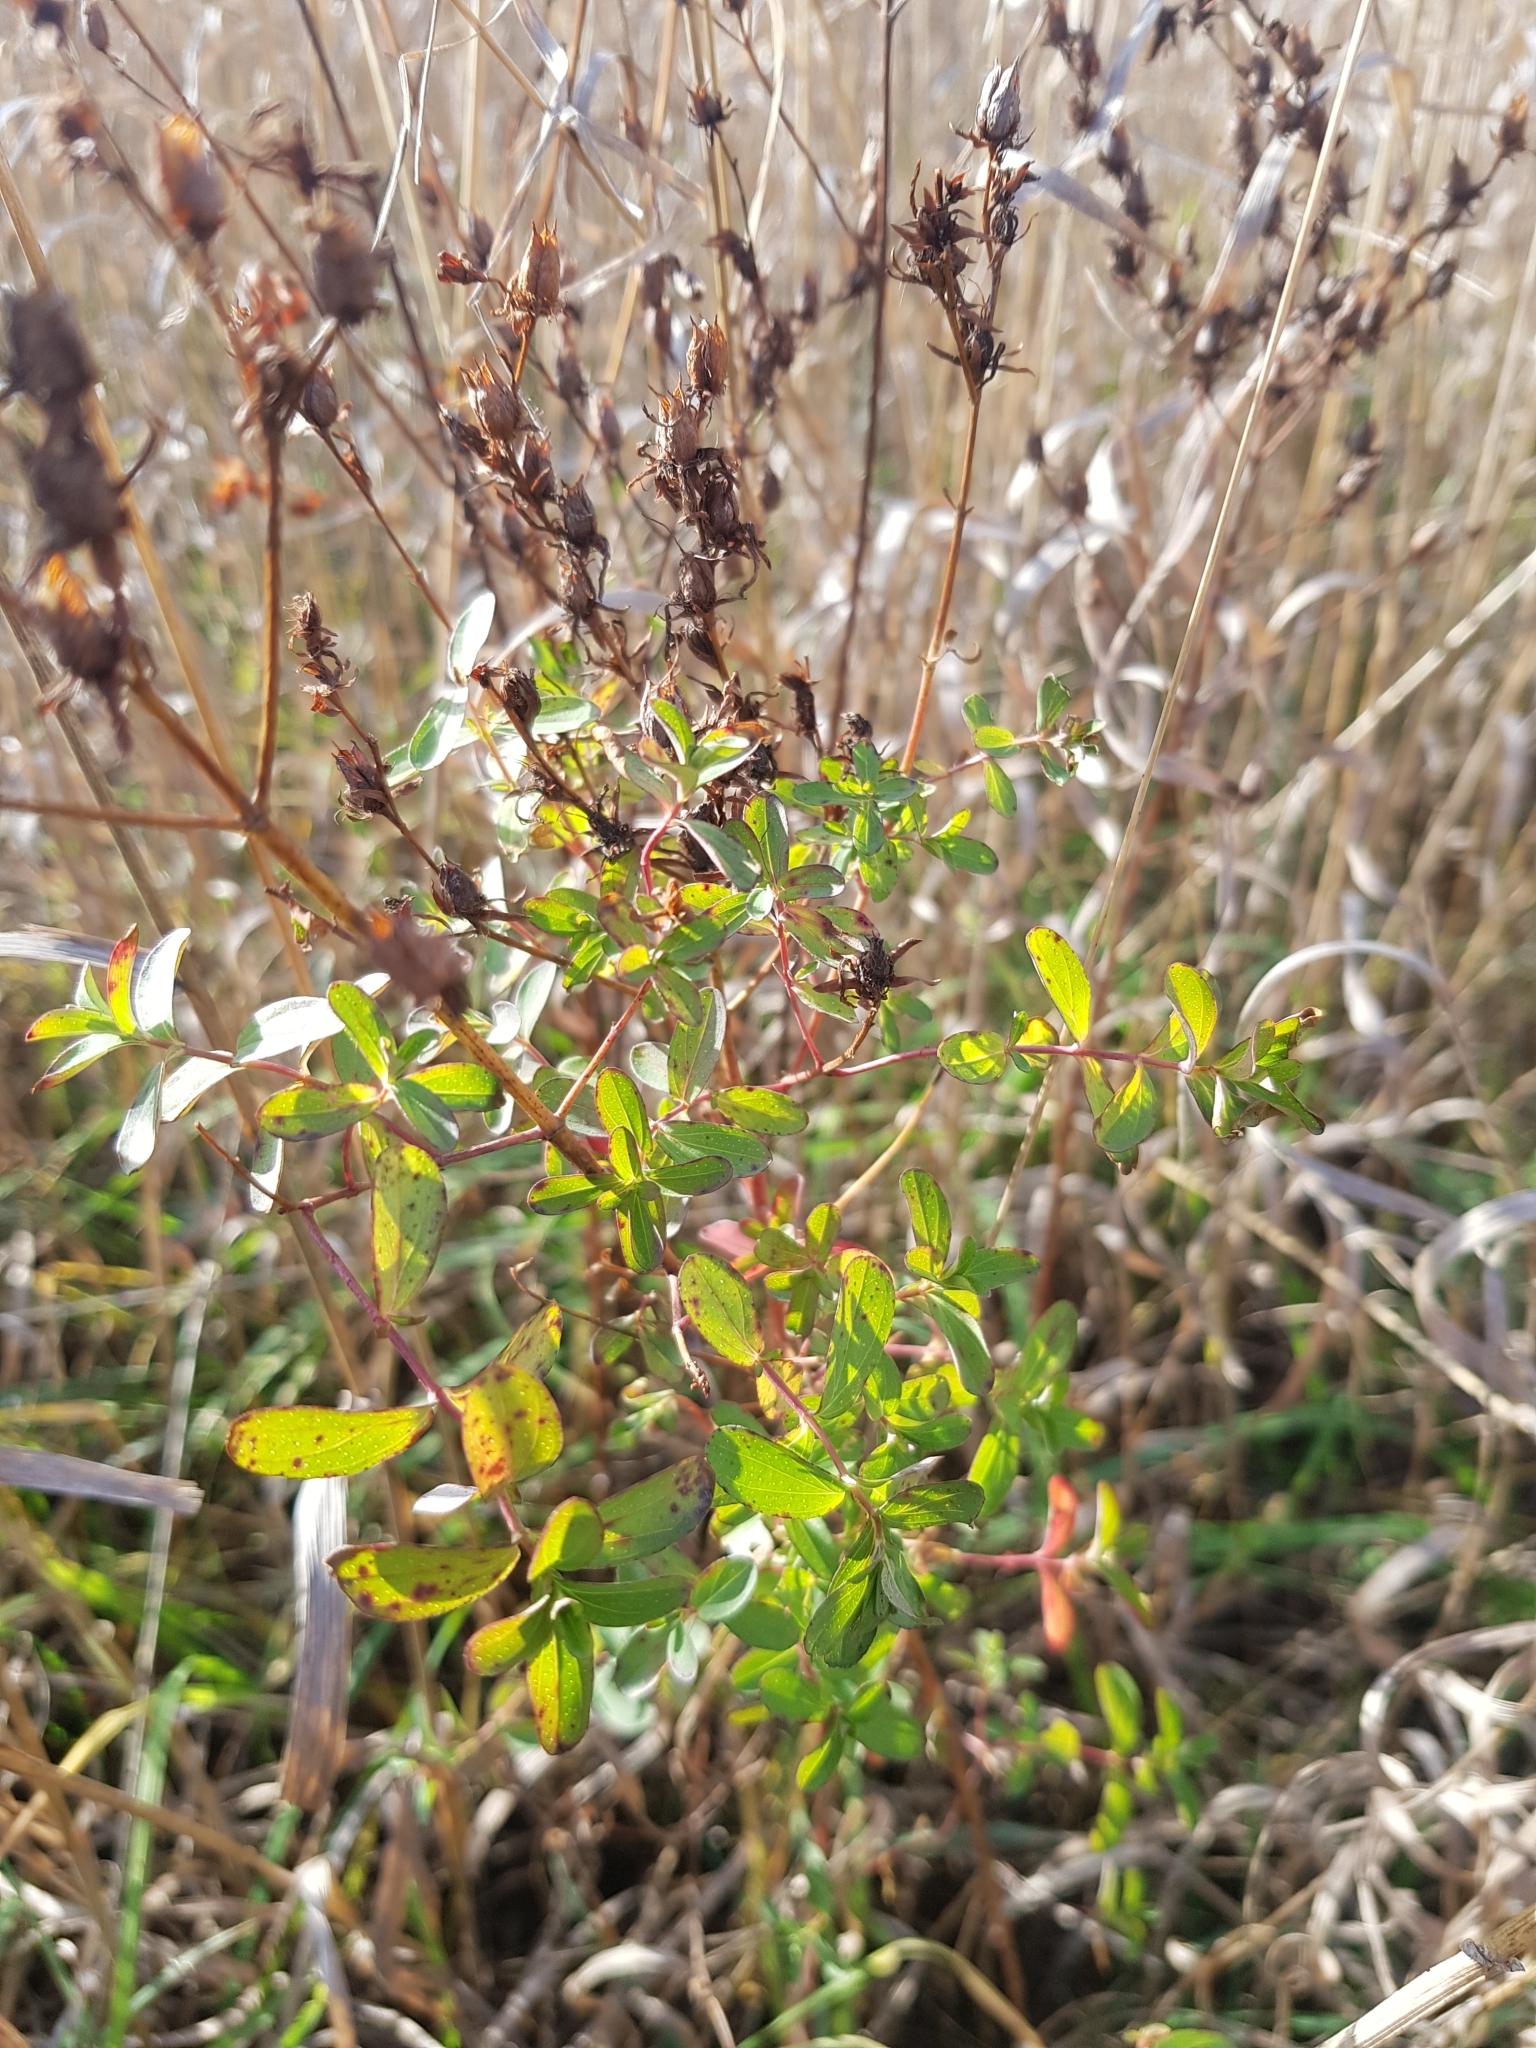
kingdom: Plantae
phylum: Tracheophyta
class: Magnoliopsida
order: Malpighiales
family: Hypericaceae
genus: Hypericum
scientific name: Hypericum perforatum
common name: Common st. johnswort
